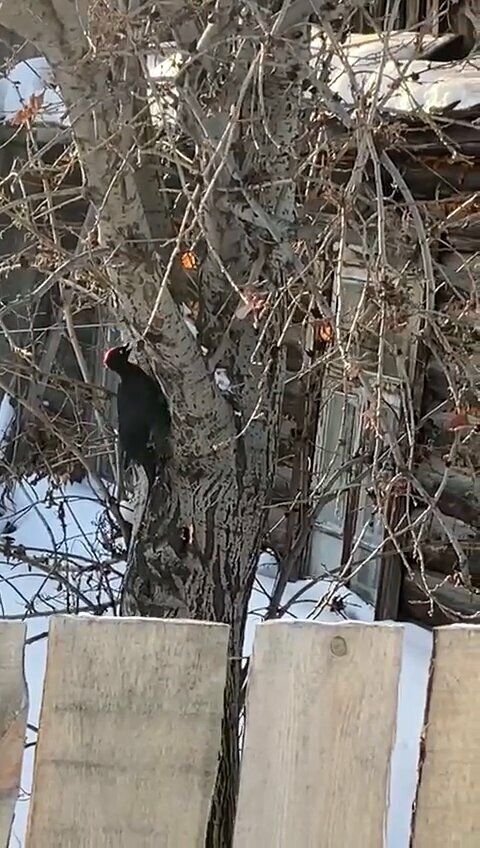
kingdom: Animalia
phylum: Chordata
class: Aves
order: Piciformes
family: Picidae
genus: Dryocopus
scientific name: Dryocopus martius
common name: Black woodpecker
